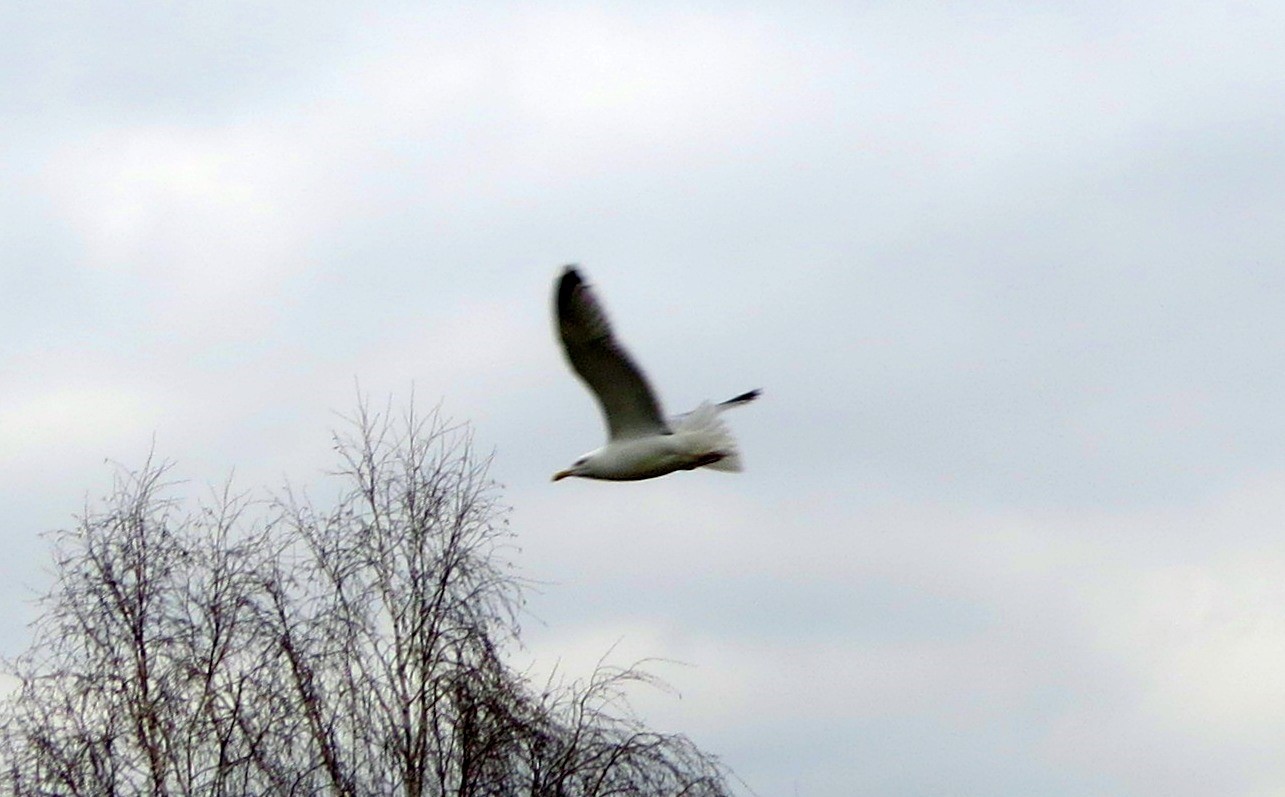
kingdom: Animalia
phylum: Chordata
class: Aves
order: Charadriiformes
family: Laridae
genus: Larus
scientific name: Larus argentatus
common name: Herring gull
